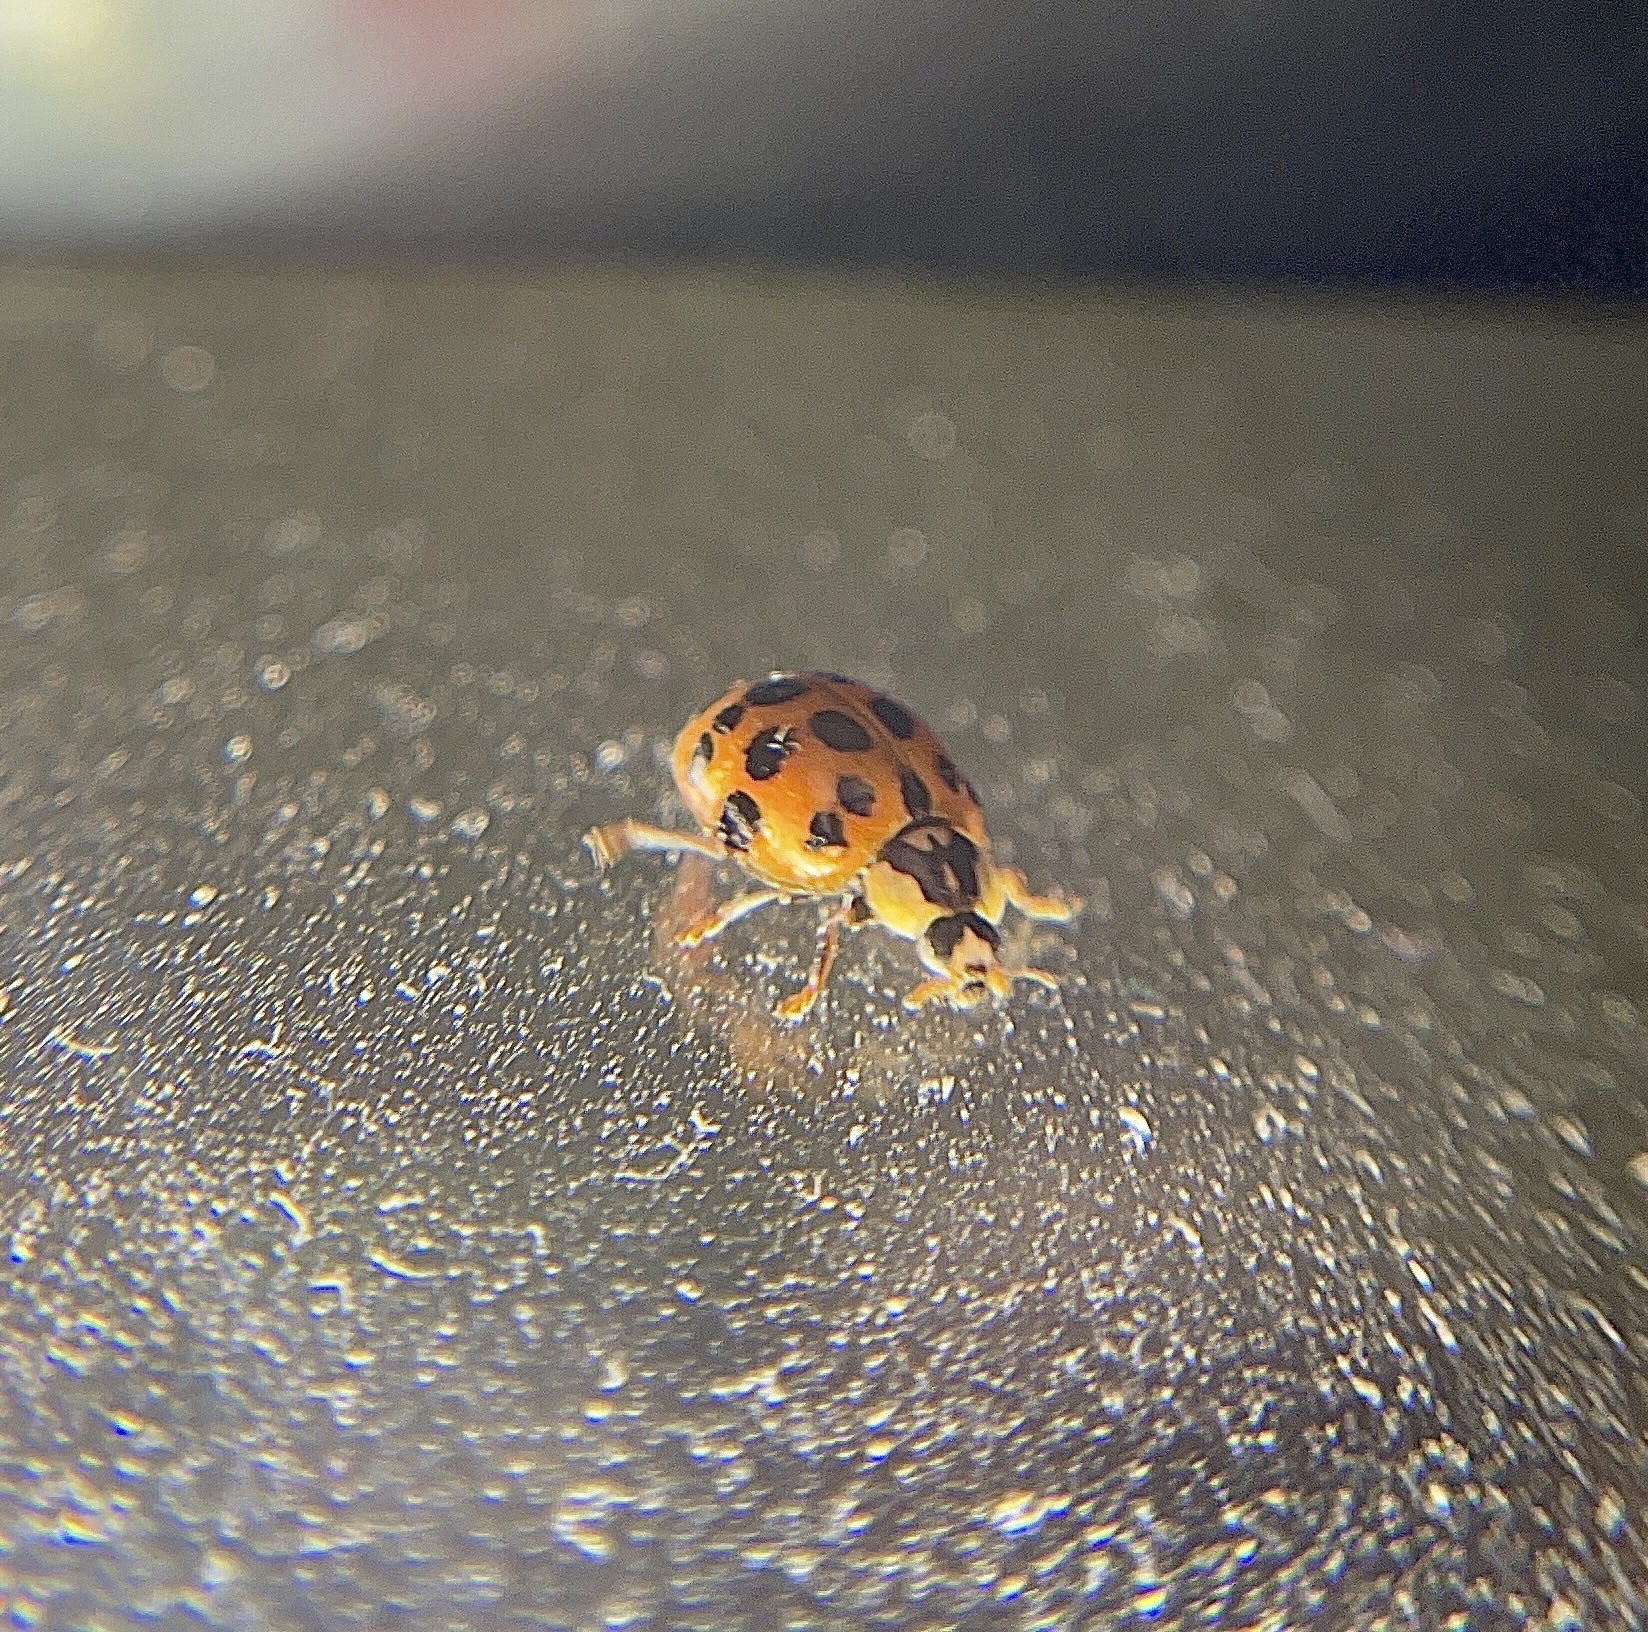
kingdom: Animalia
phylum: Arthropoda
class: Insecta
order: Coleoptera
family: Coccinellidae
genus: Harmonia
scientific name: Harmonia axyridis
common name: Harlequin ladybird
